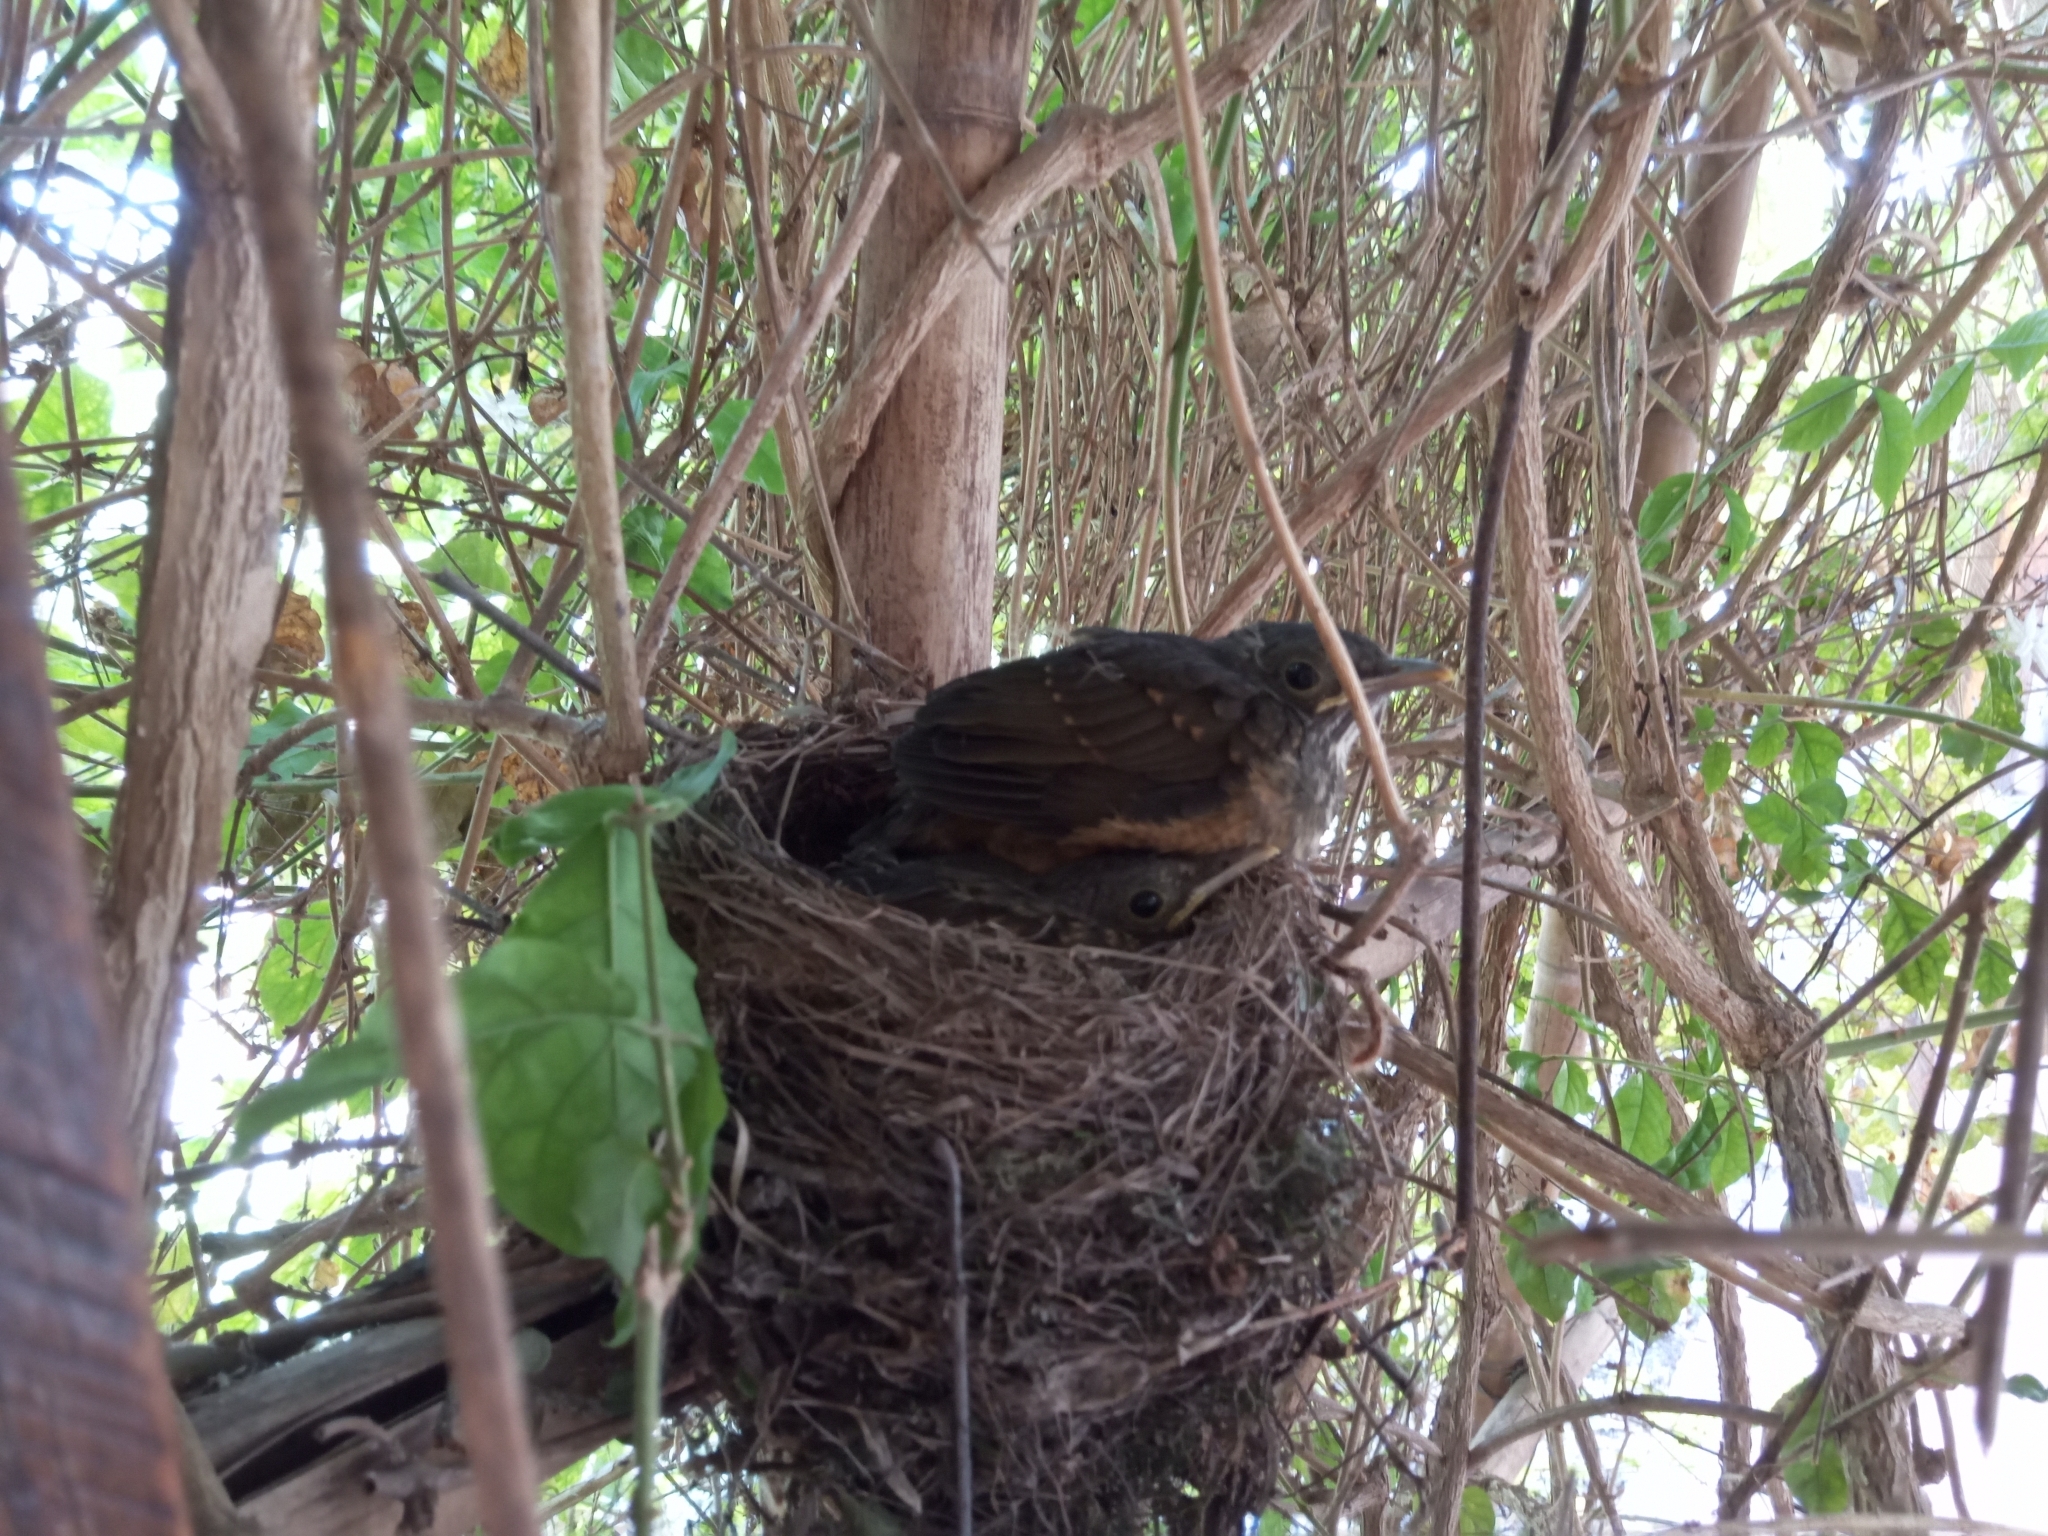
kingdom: Animalia
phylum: Chordata
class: Aves
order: Passeriformes
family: Turdidae
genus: Turdus
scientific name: Turdus rufiventris
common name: Rufous-bellied thrush
